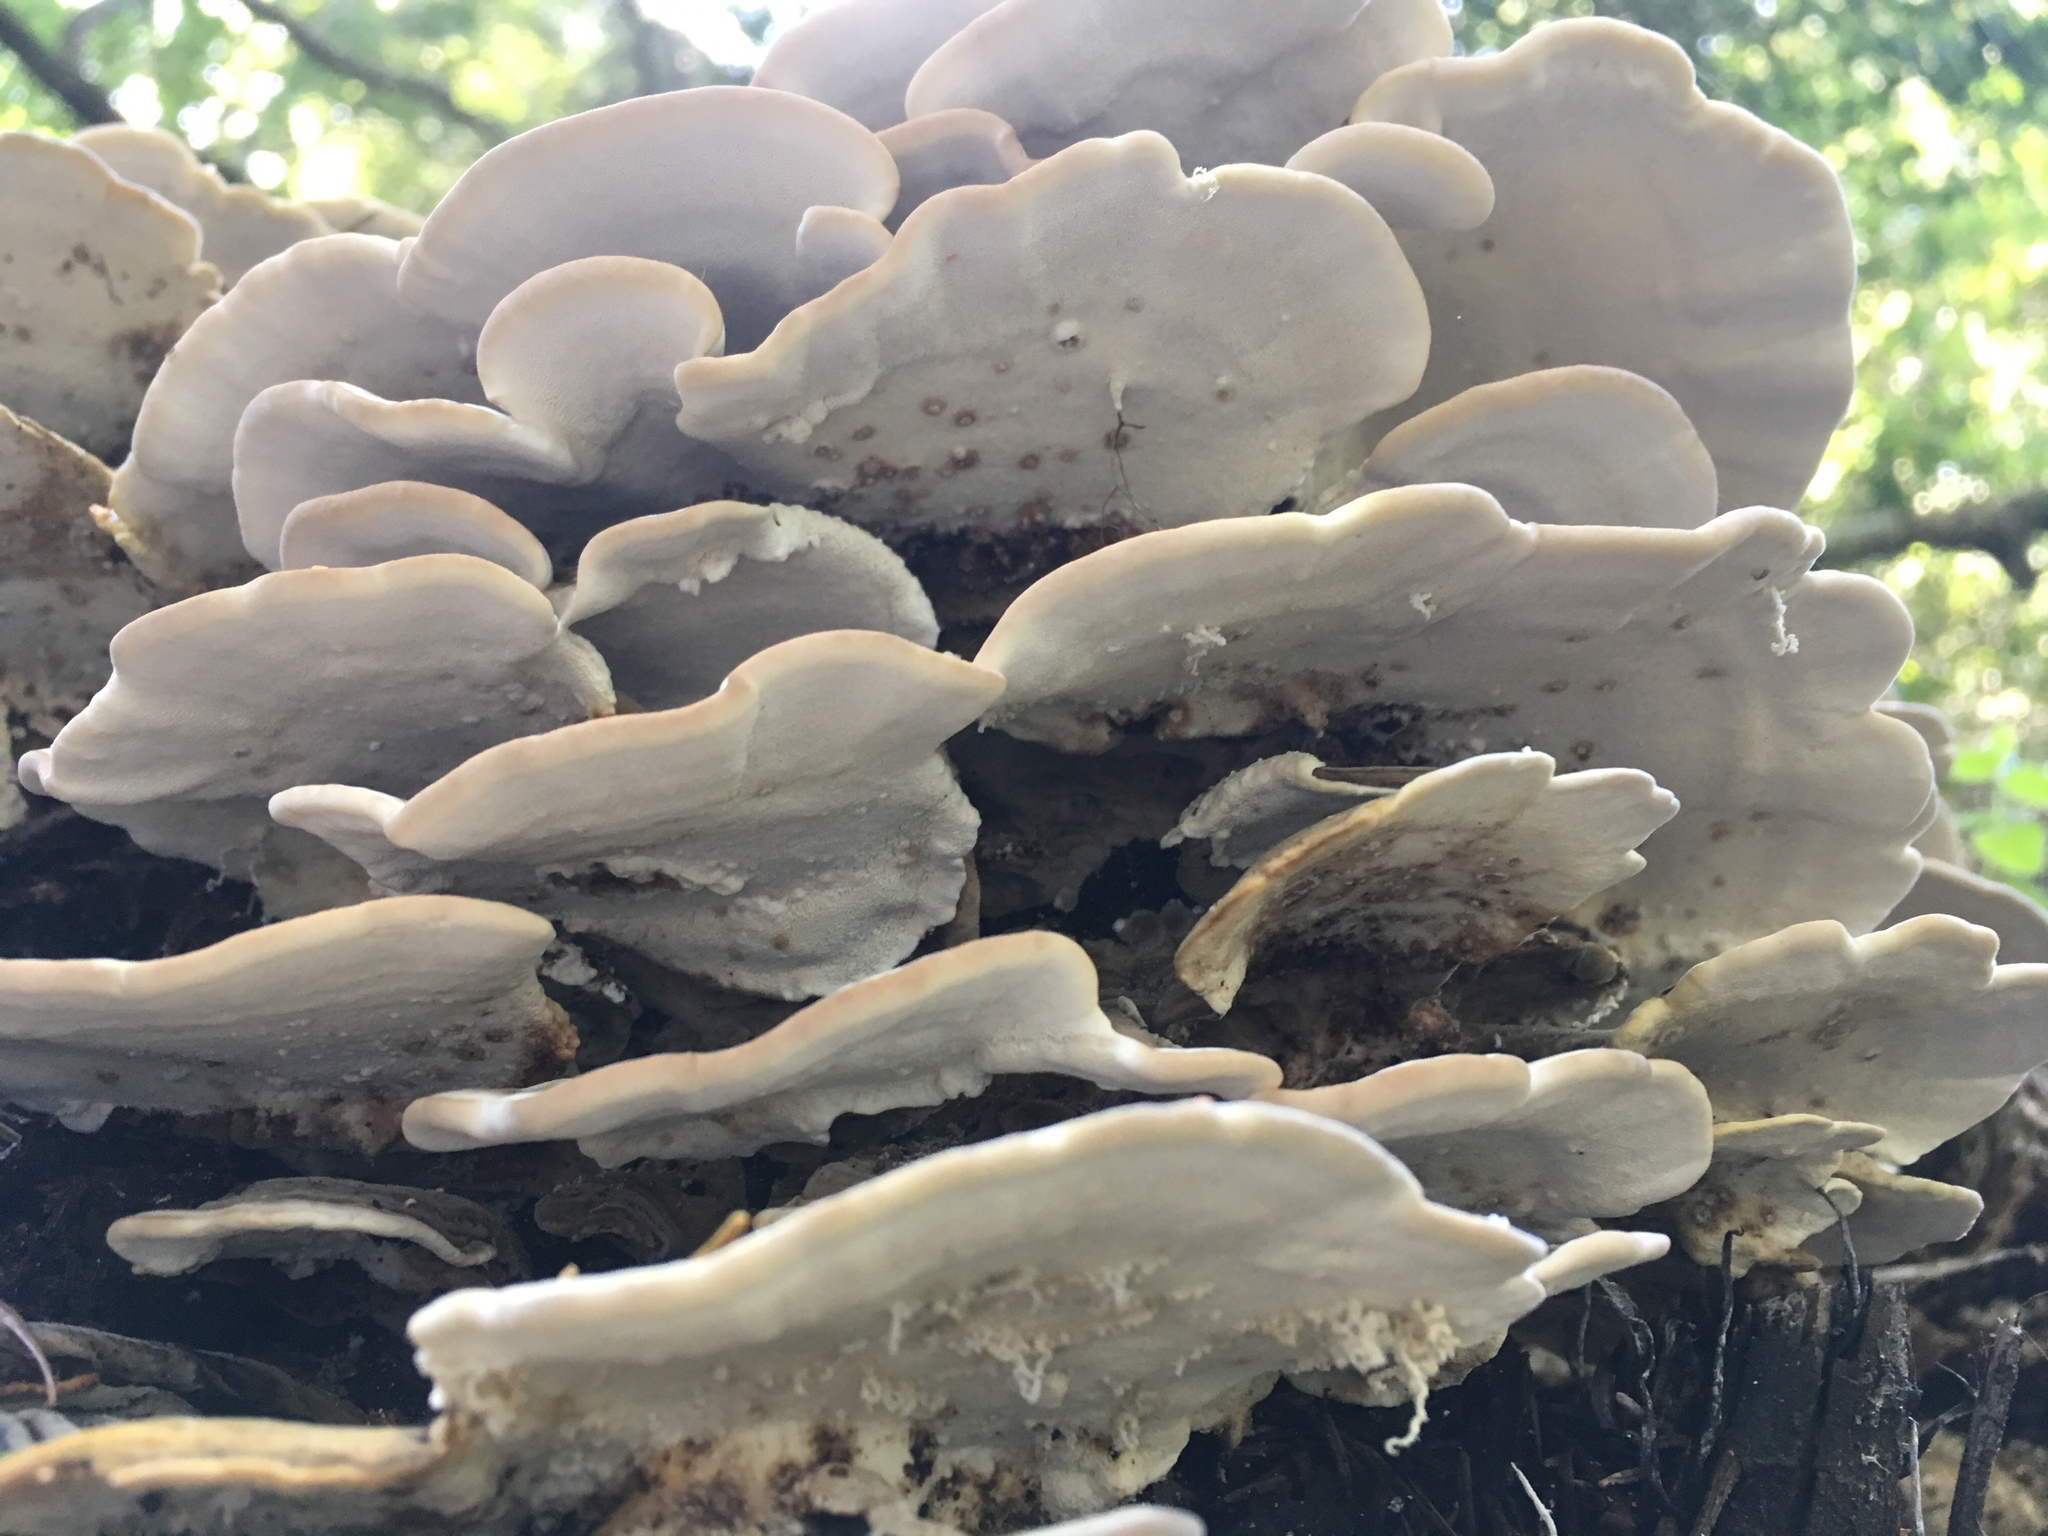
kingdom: Fungi
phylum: Basidiomycota
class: Agaricomycetes
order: Polyporales
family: Polyporaceae
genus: Trametes
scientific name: Trametes versicolor
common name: Turkeytail
